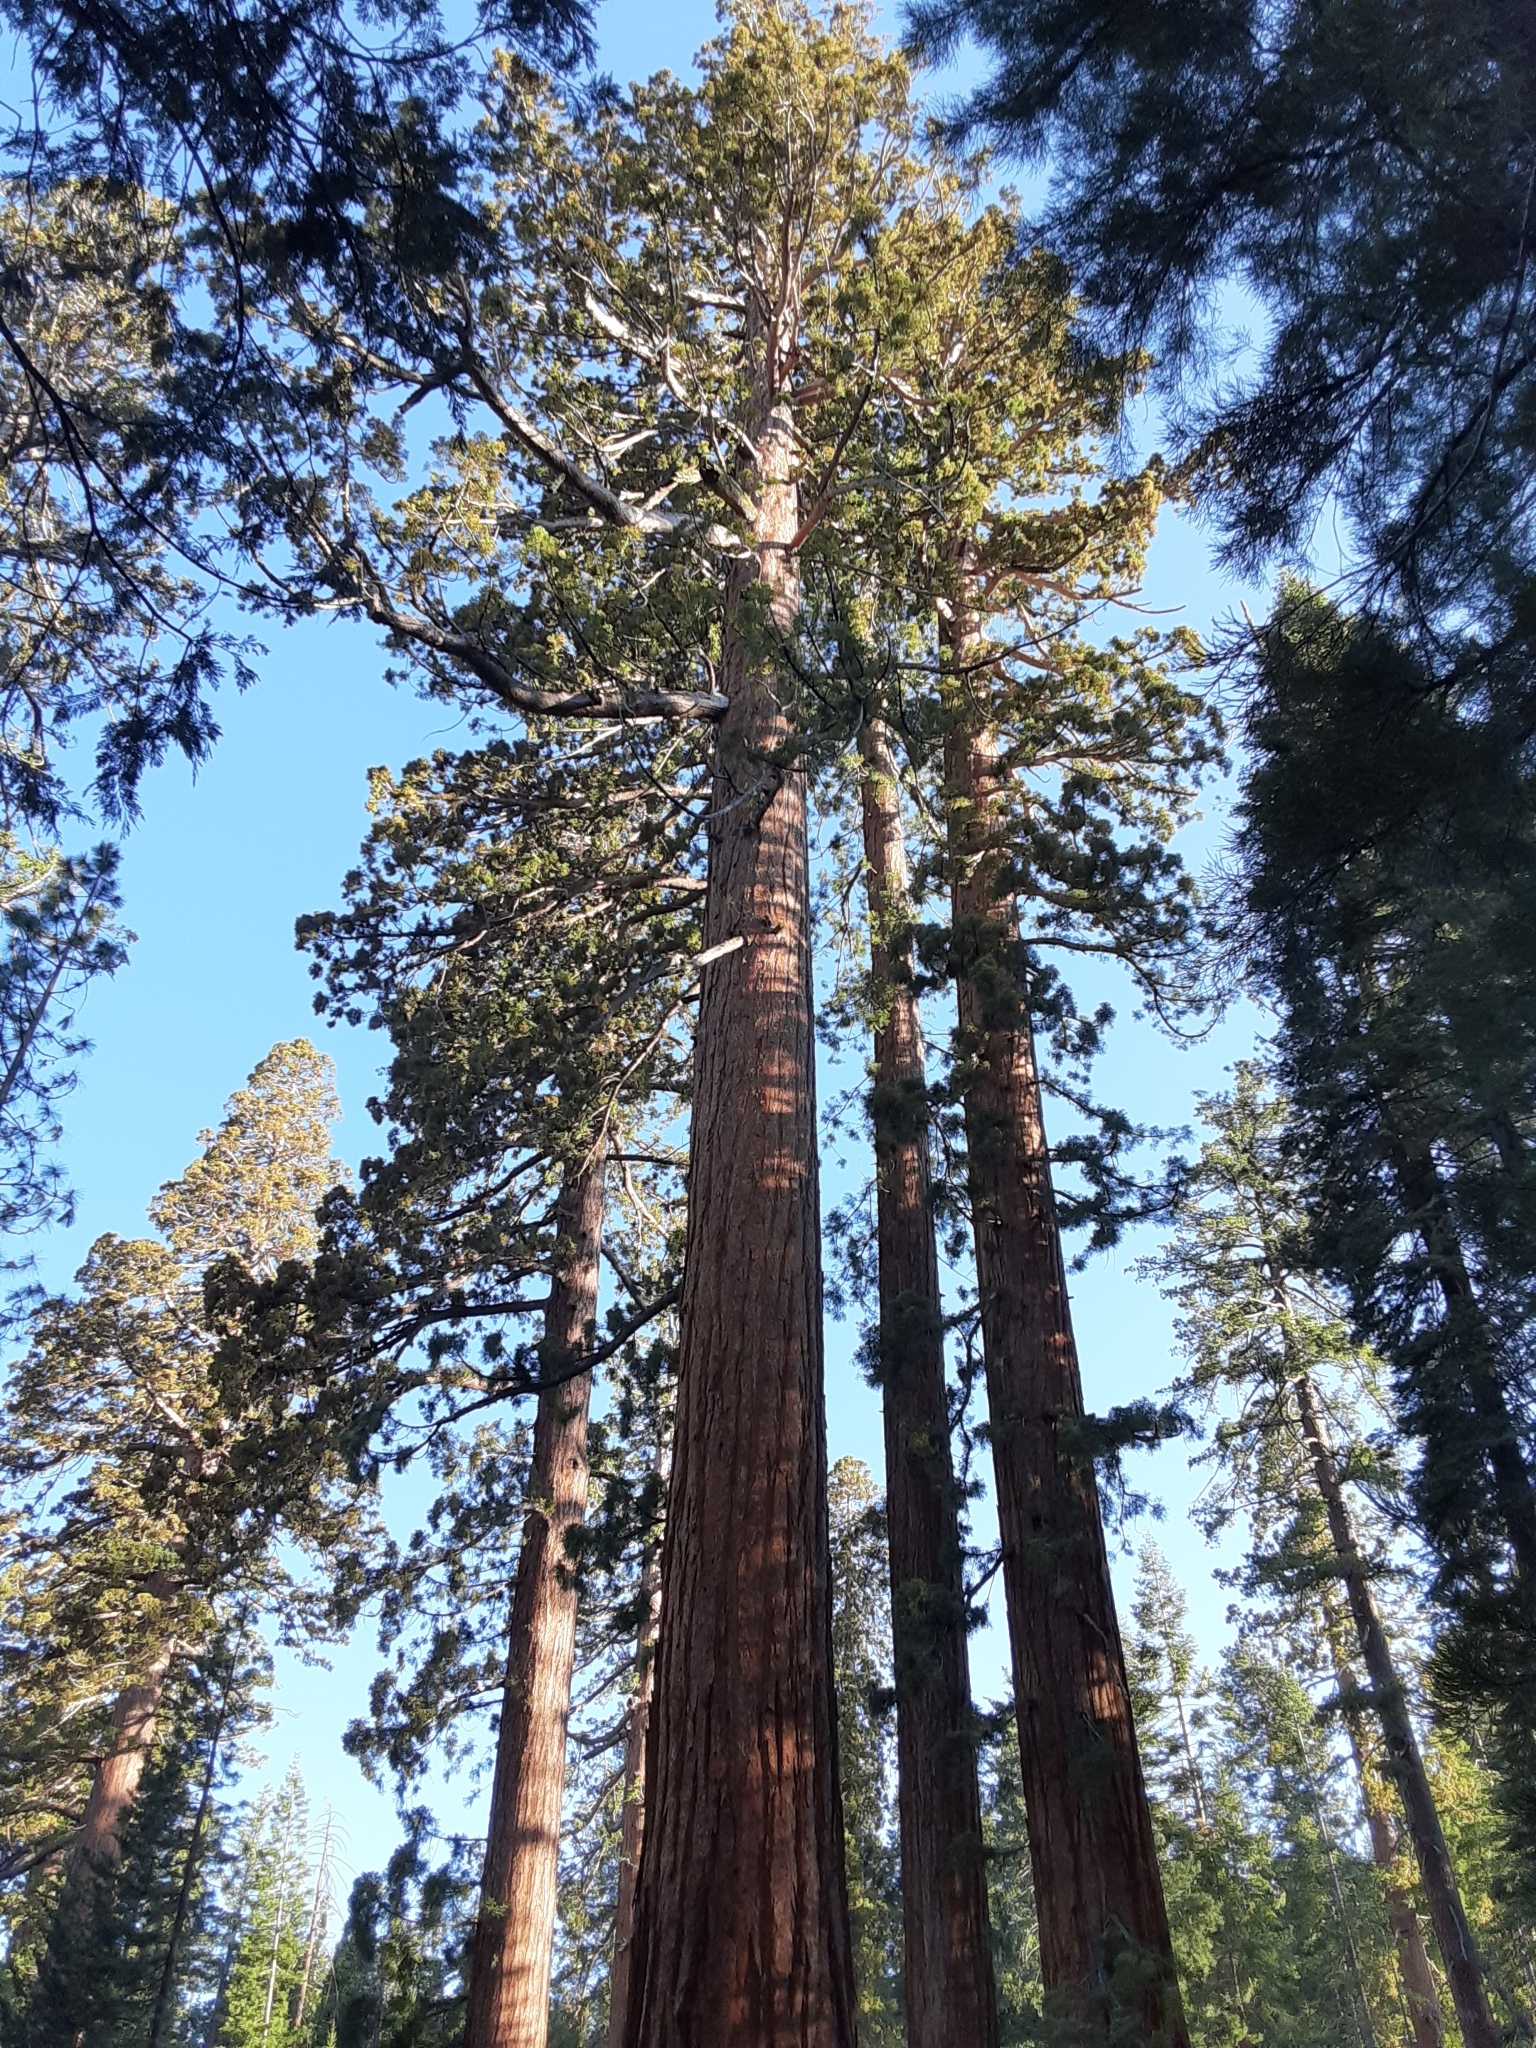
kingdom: Plantae
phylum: Tracheophyta
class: Pinopsida
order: Pinales
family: Cupressaceae
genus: Sequoiadendron
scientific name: Sequoiadendron giganteum
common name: Wellingtonia
